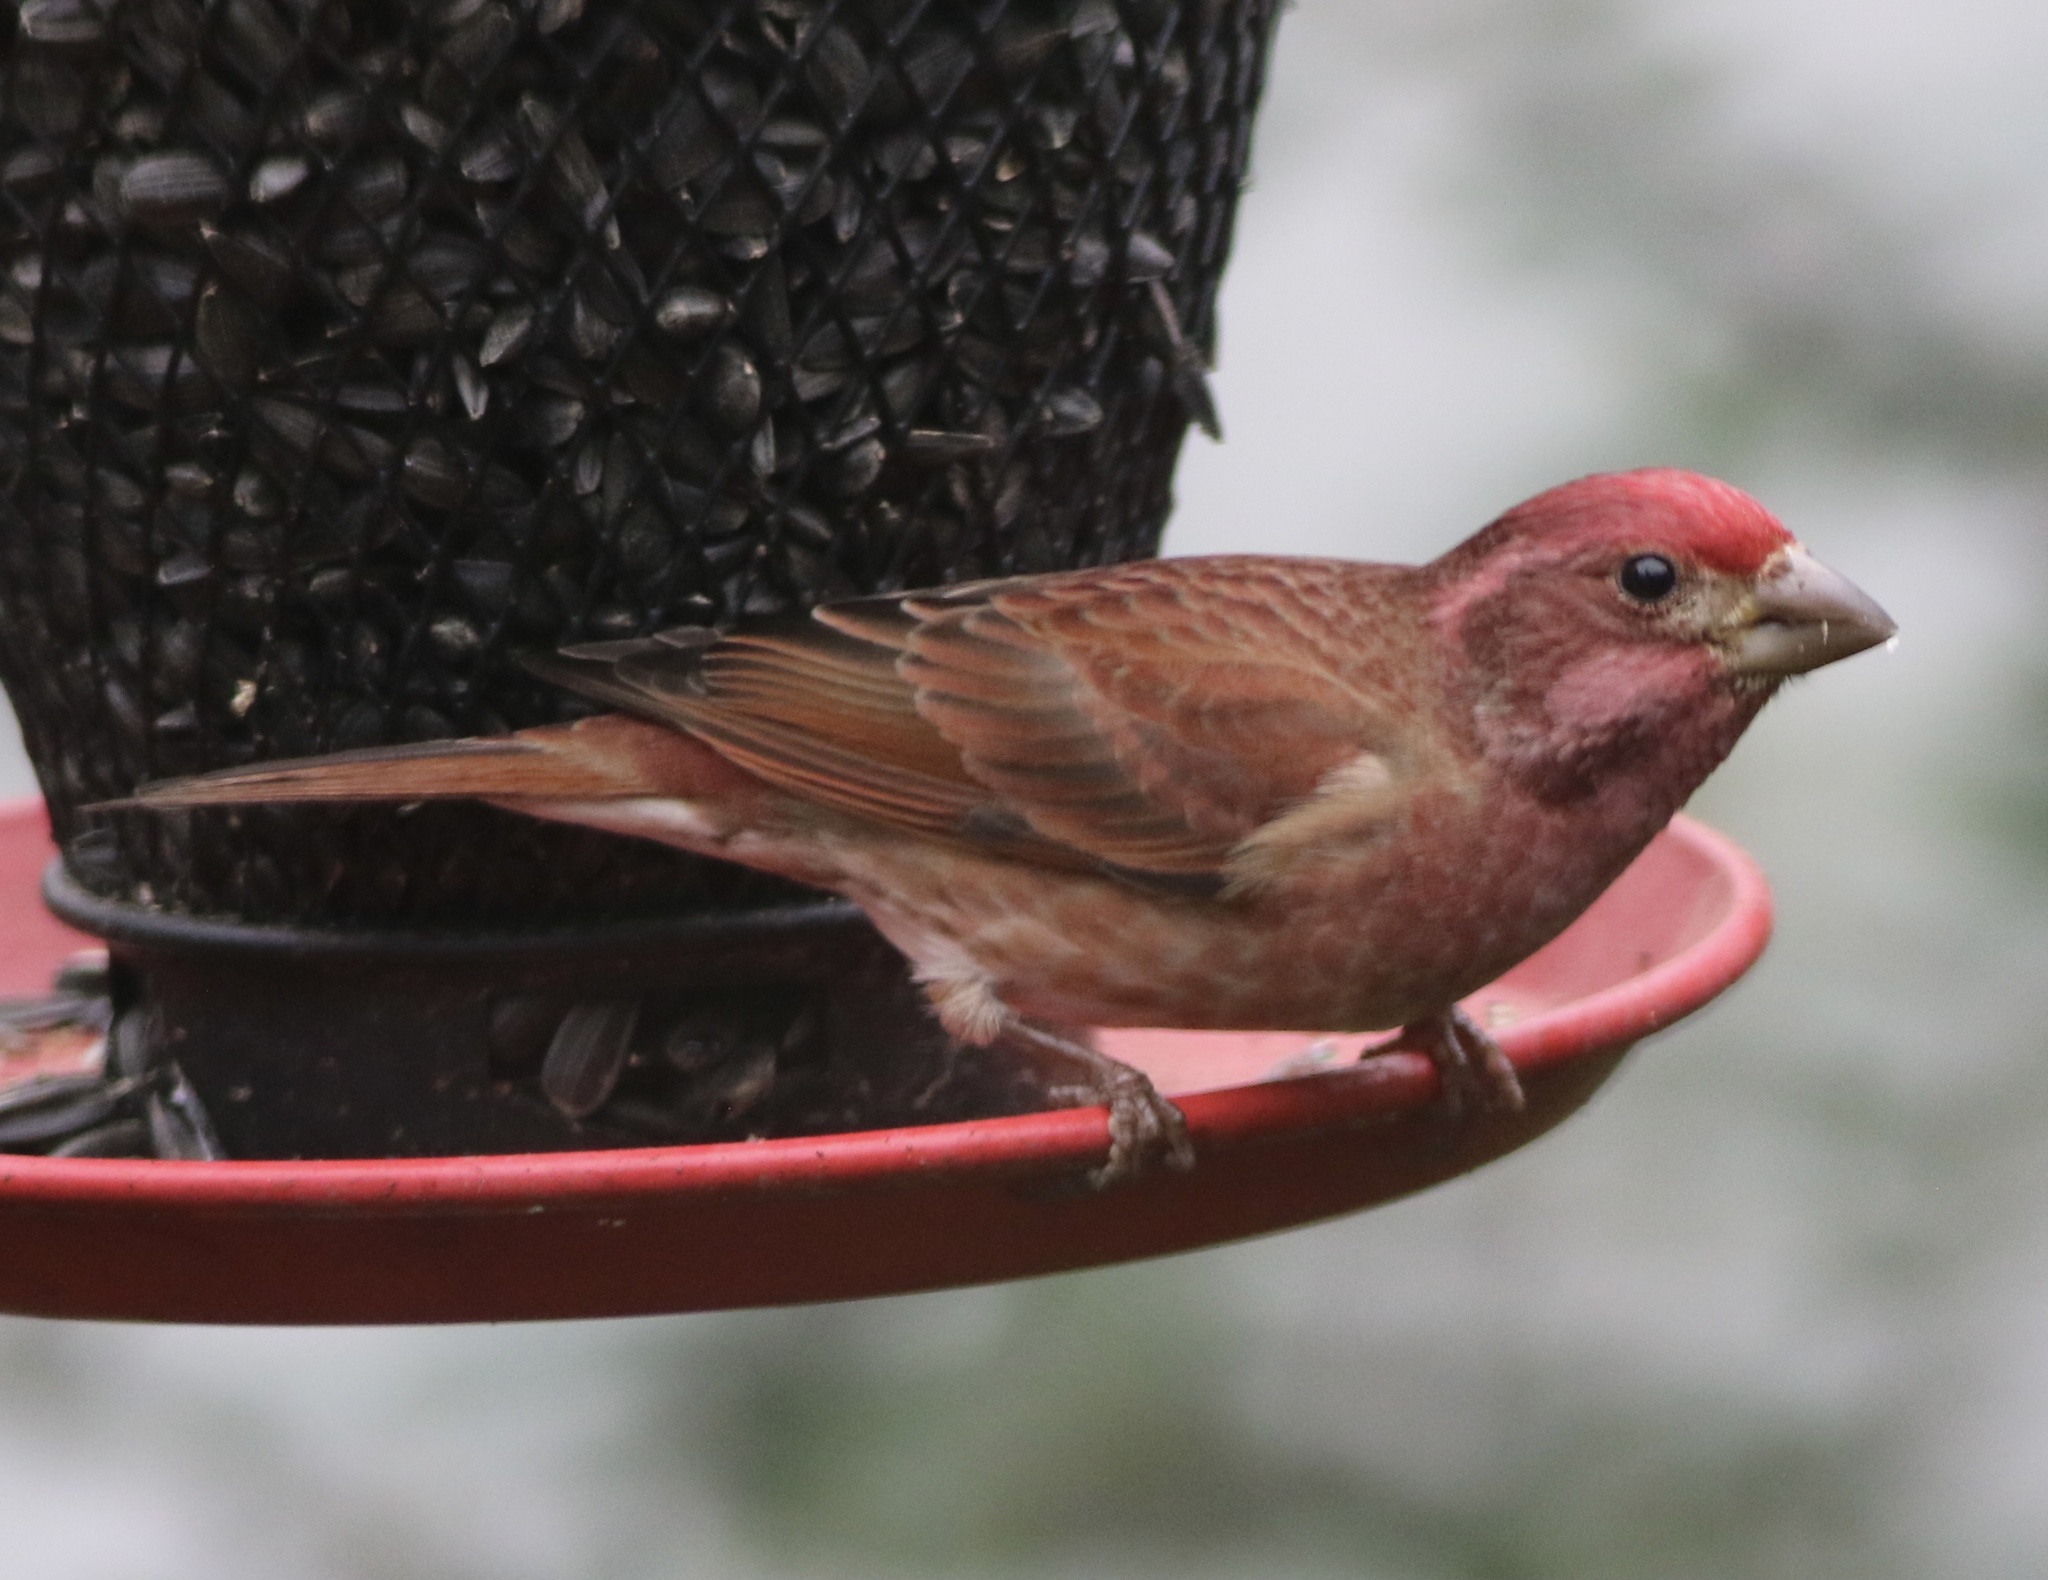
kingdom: Animalia
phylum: Chordata
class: Aves
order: Passeriformes
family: Fringillidae
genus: Haemorhous
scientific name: Haemorhous purpureus
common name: Purple finch
